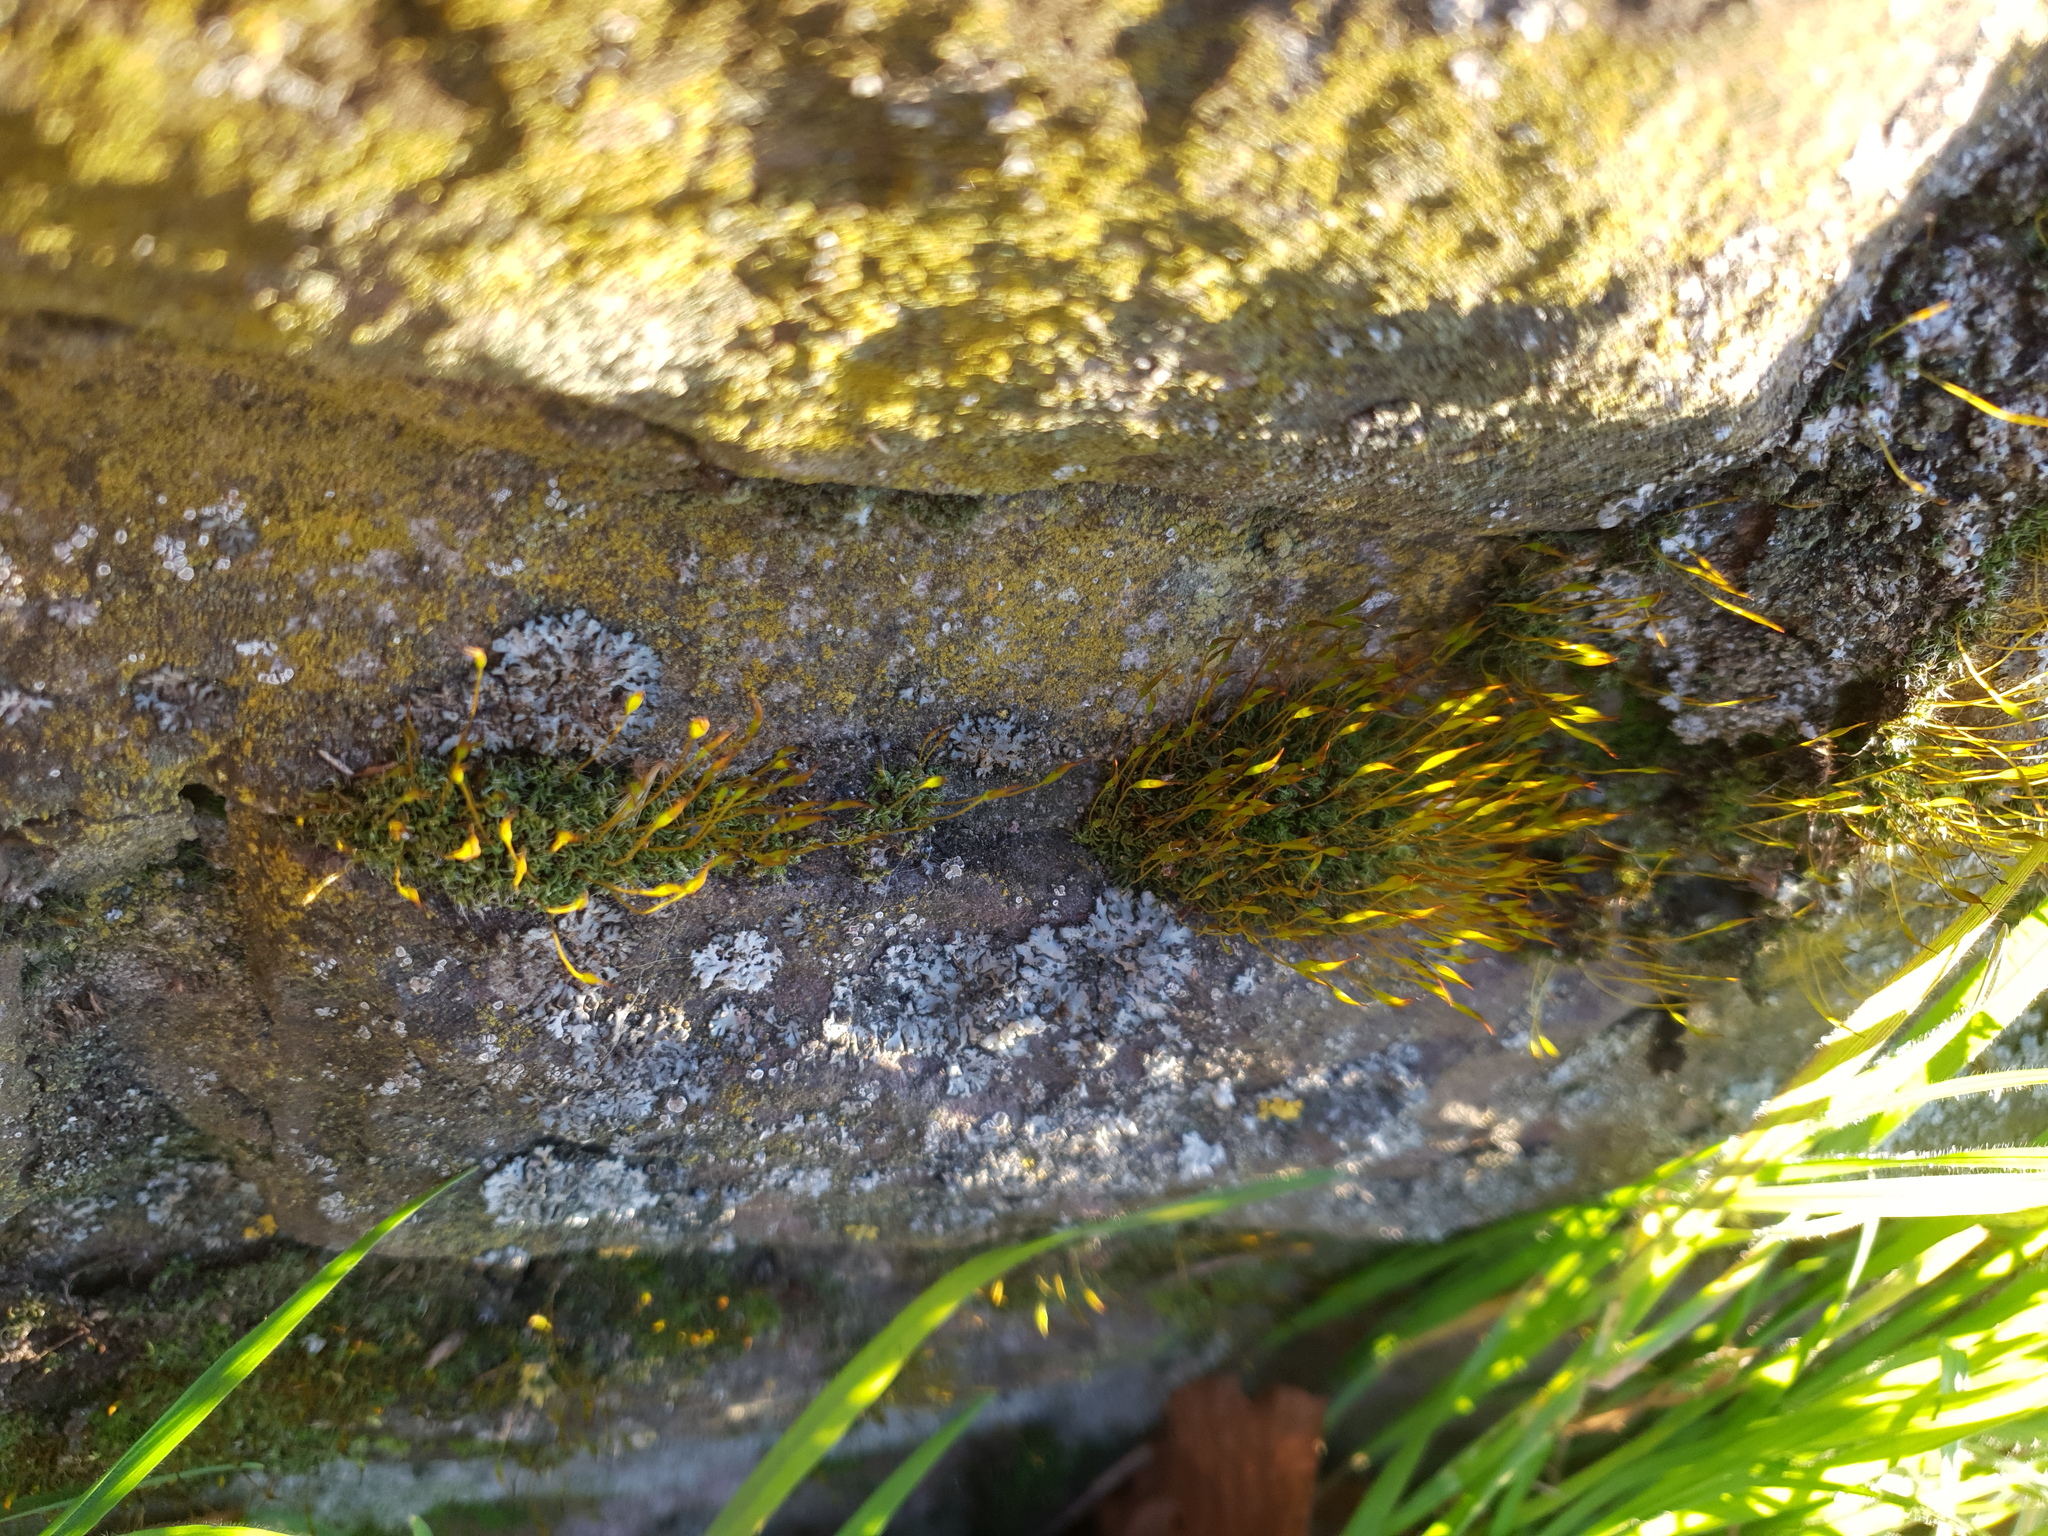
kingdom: Plantae
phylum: Bryophyta
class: Bryopsida
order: Pottiales
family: Pottiaceae
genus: Tortula
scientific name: Tortula muralis
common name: Wall screw-moss
